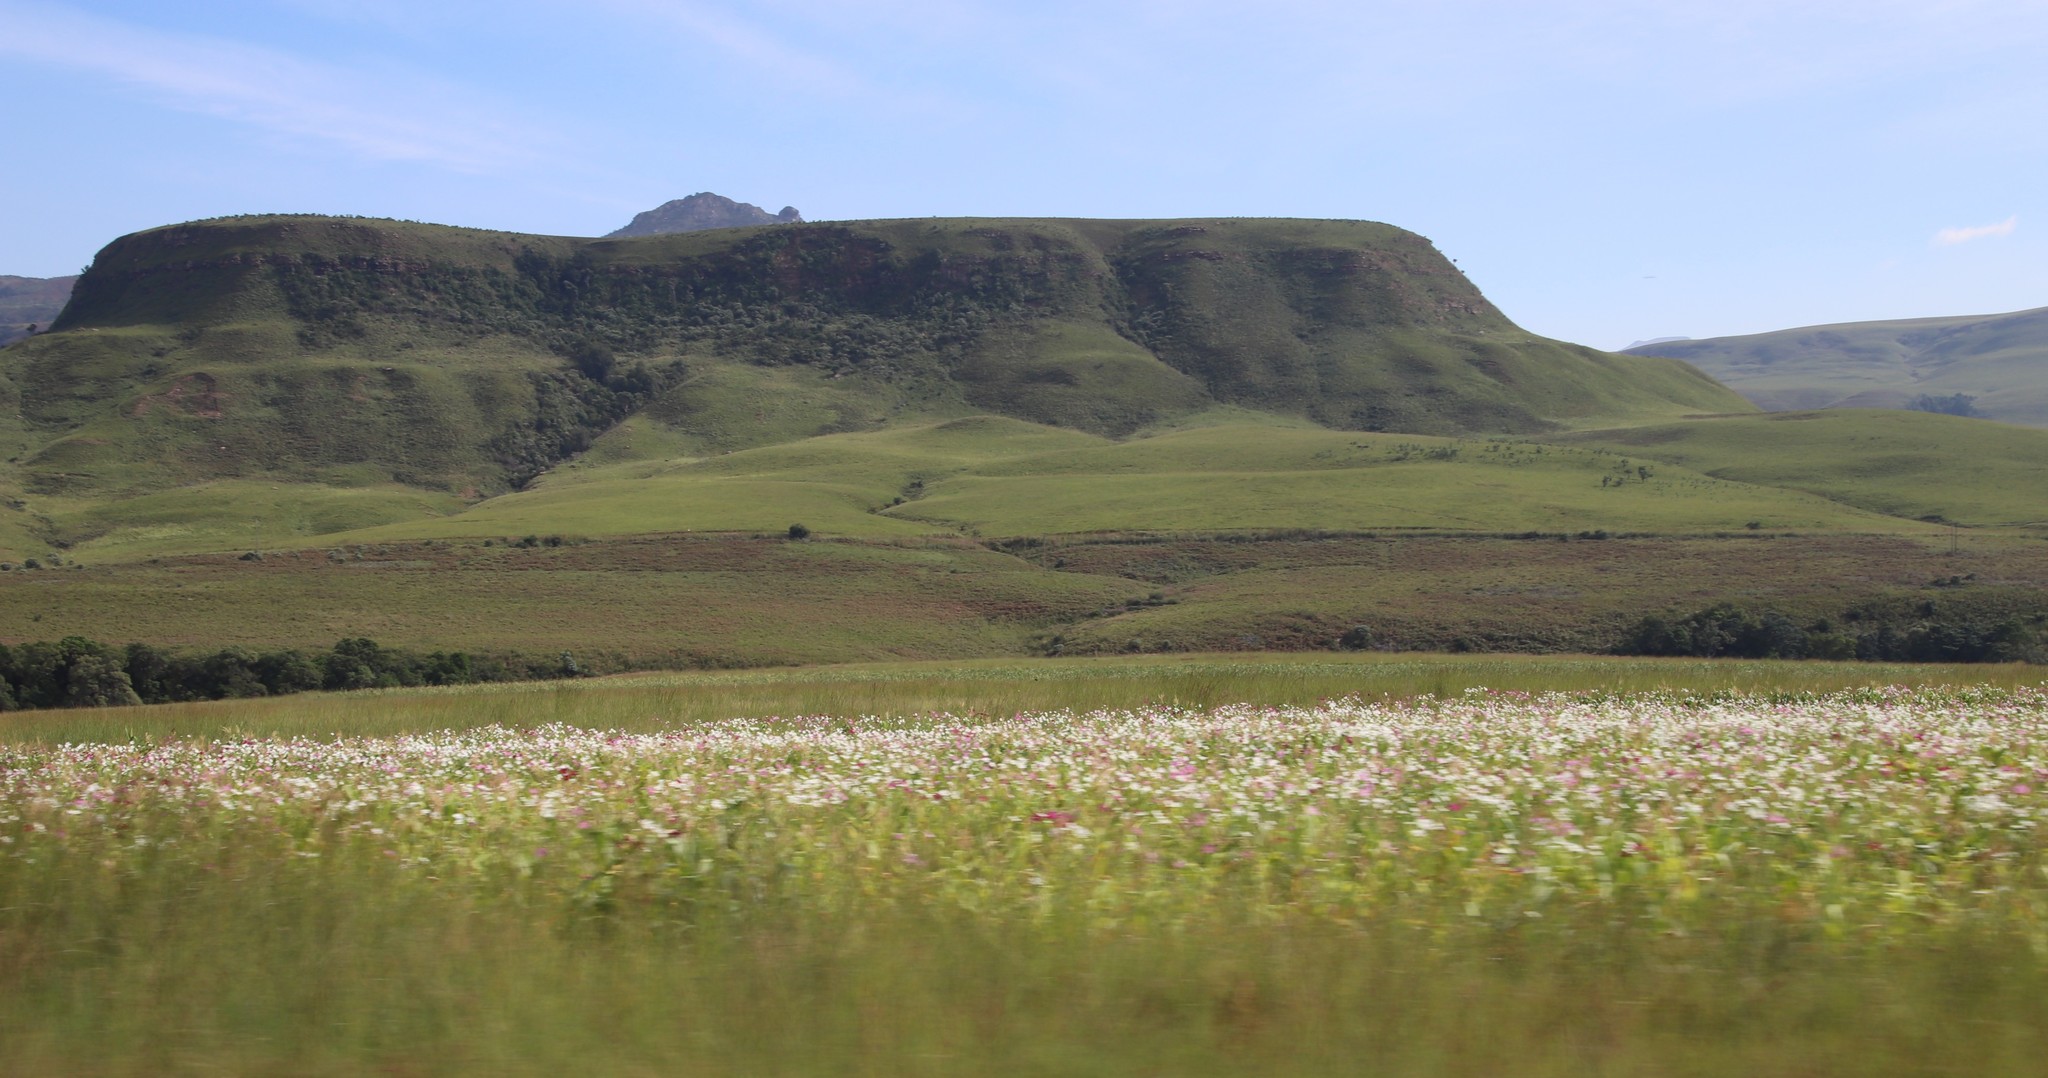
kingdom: Plantae
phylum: Tracheophyta
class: Magnoliopsida
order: Asterales
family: Asteraceae
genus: Cosmos
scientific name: Cosmos bipinnatus
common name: Garden cosmos
